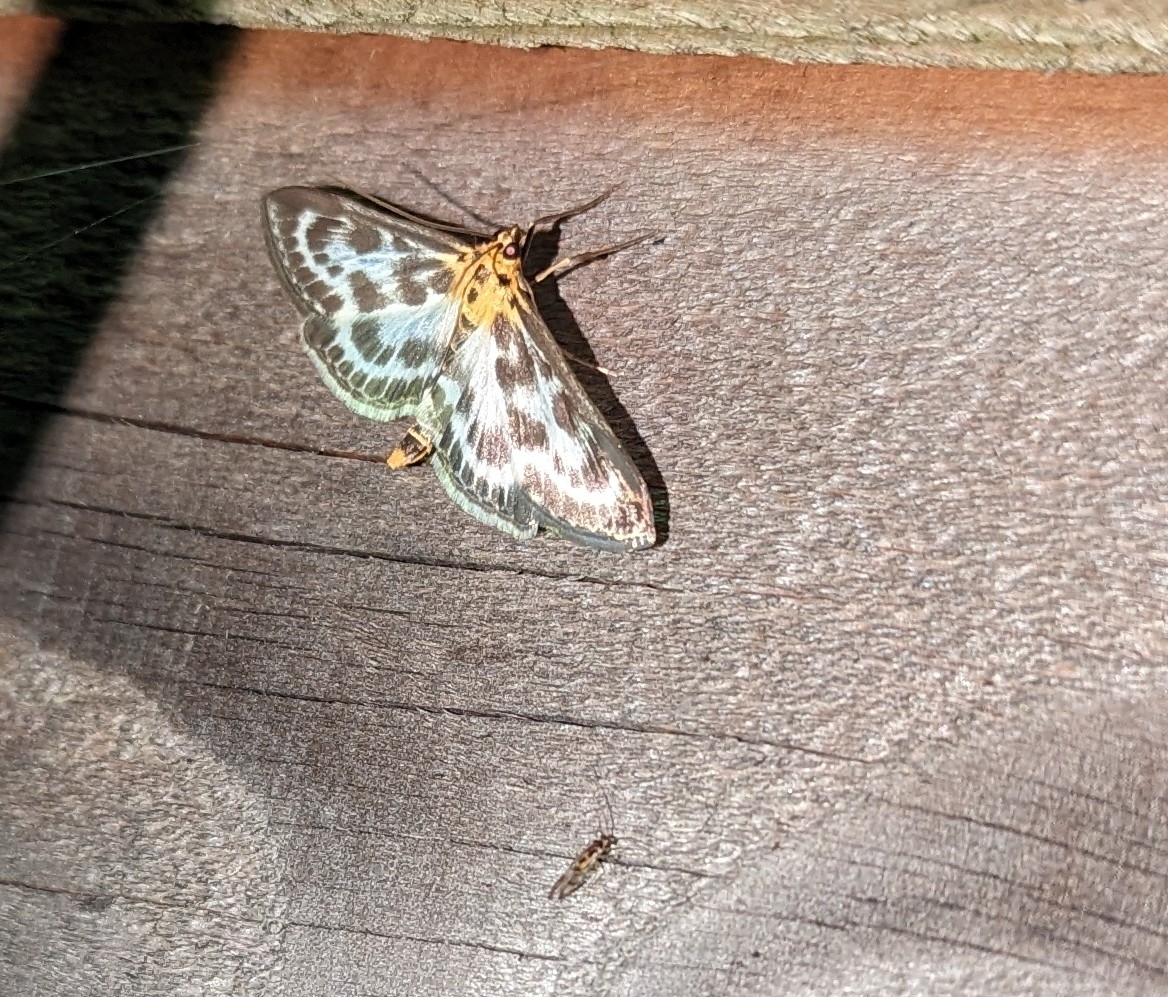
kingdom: Animalia
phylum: Arthropoda
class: Insecta
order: Lepidoptera
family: Crambidae
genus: Anania
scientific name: Anania hortulata
